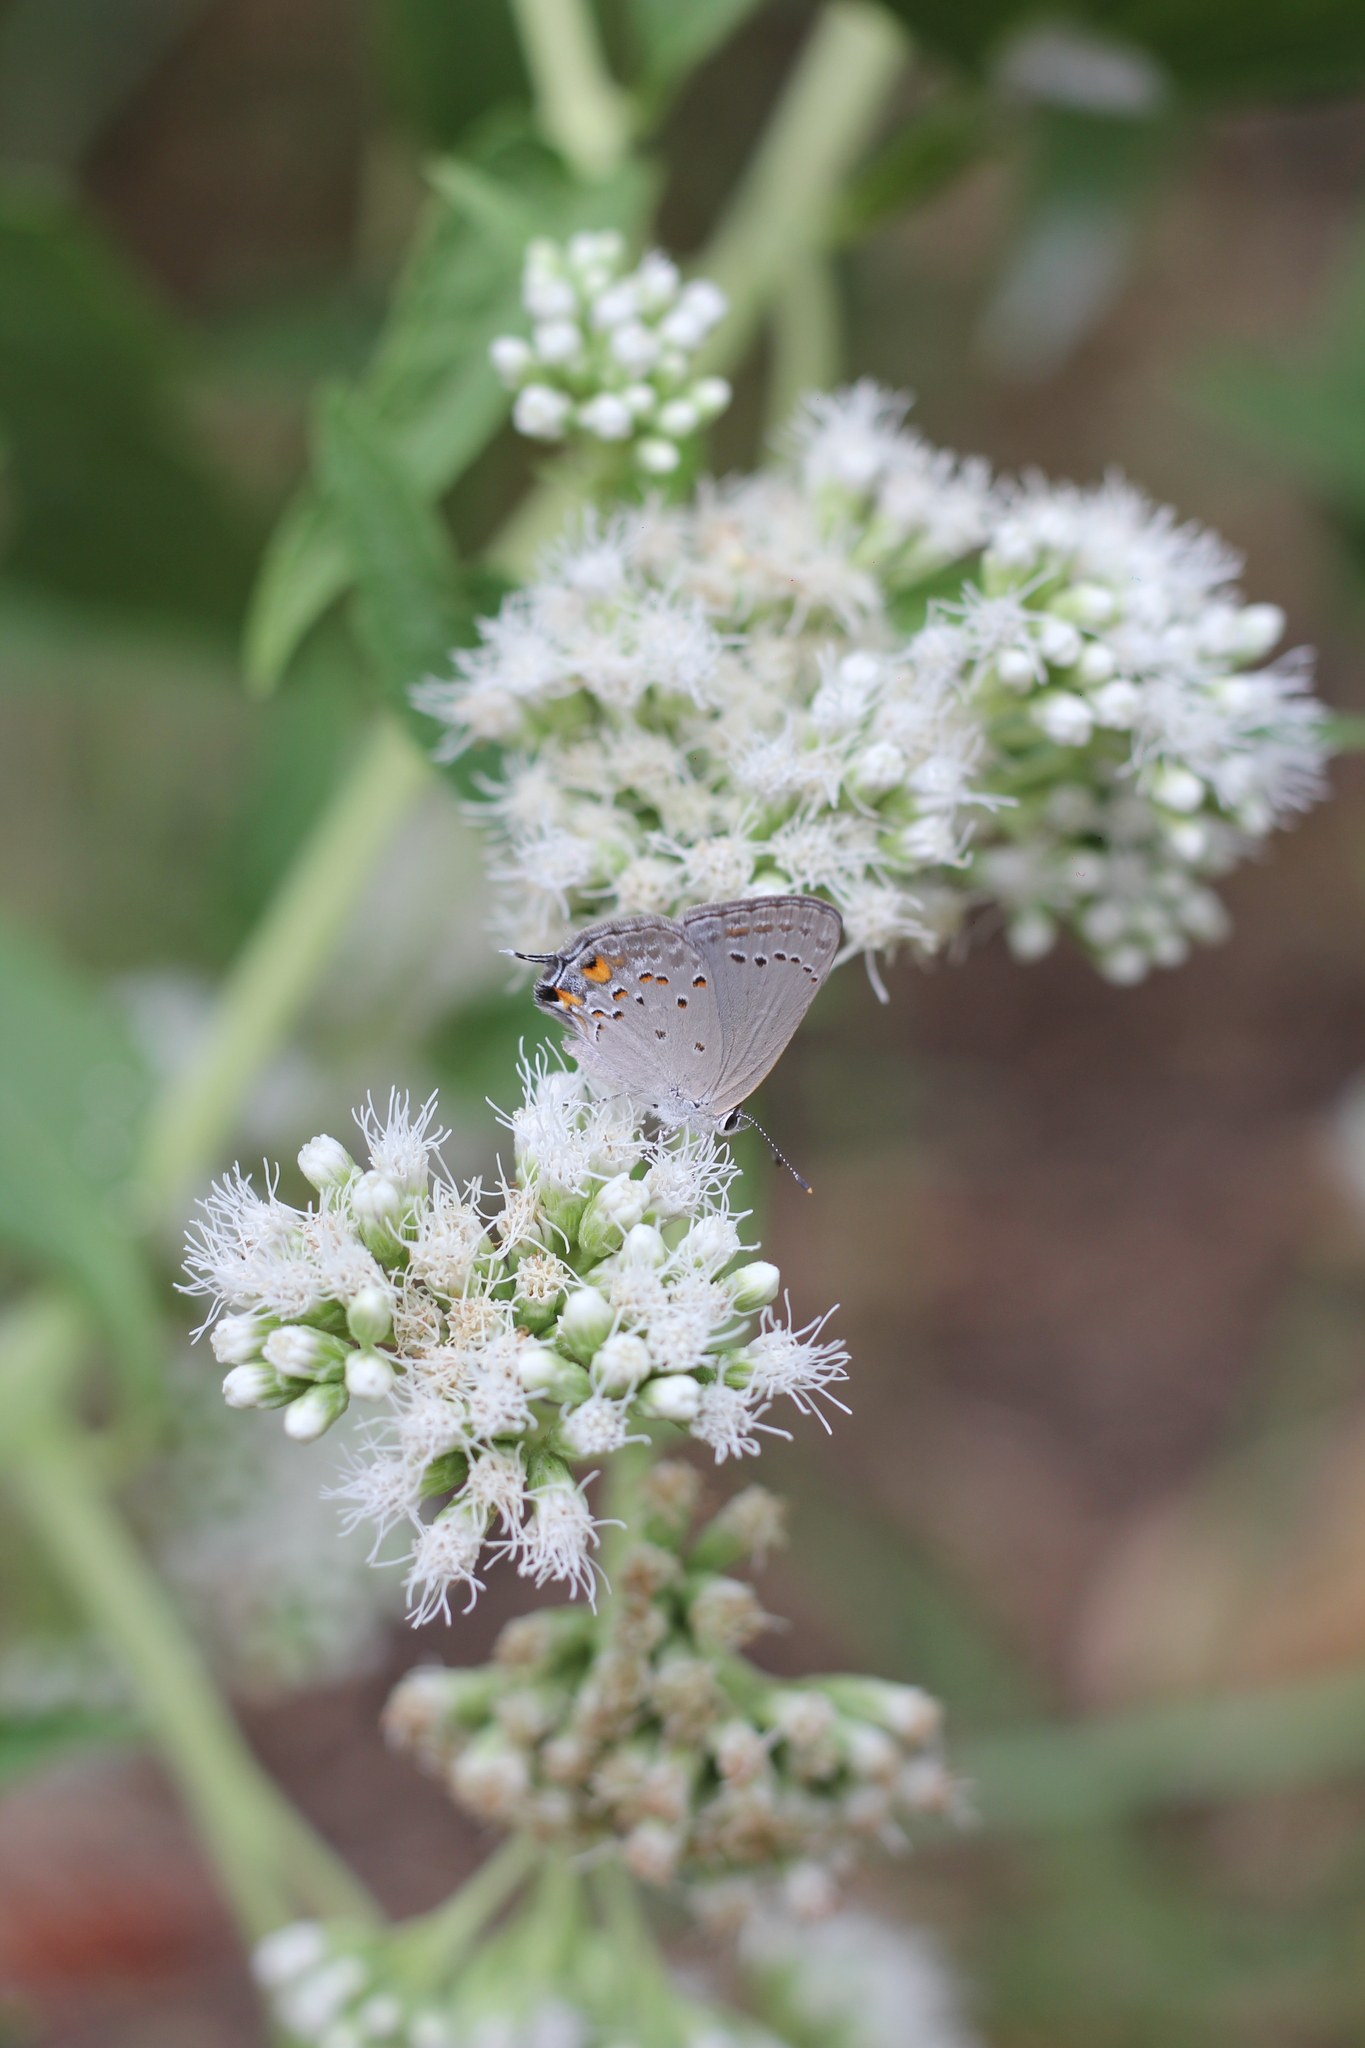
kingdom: Animalia
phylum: Arthropoda
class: Insecta
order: Lepidoptera
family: Lycaenidae
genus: Strymon
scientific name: Strymon eurytulus
